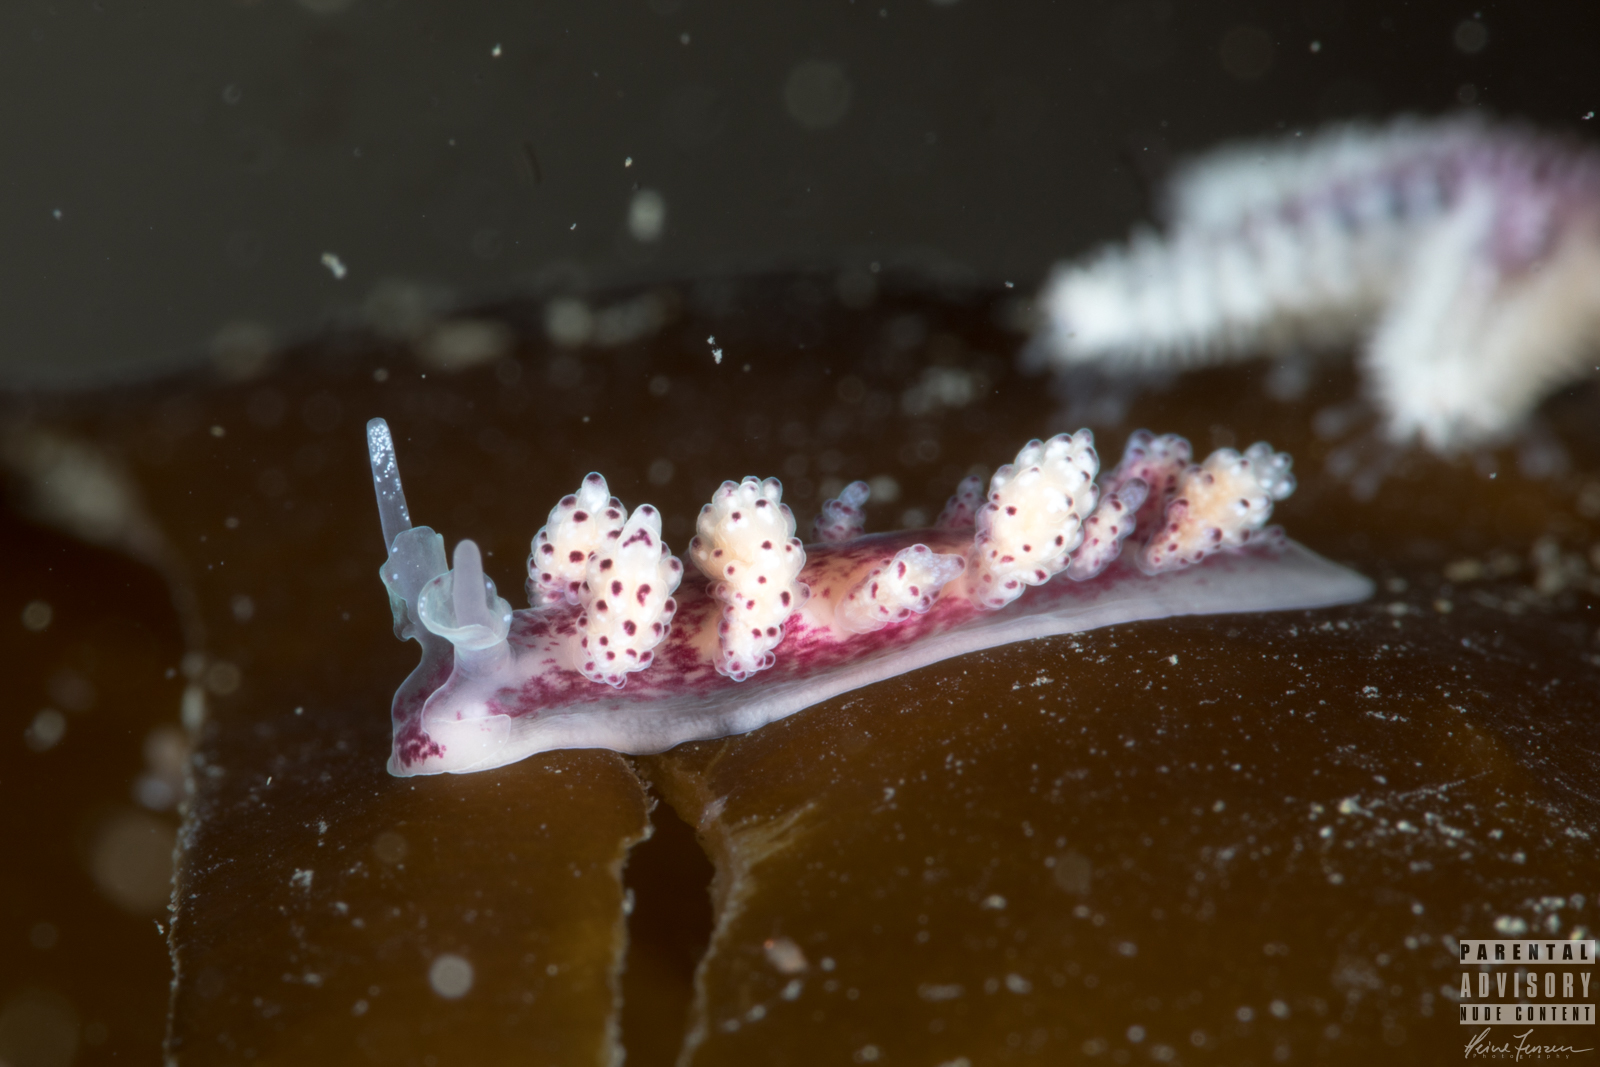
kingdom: Animalia
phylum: Mollusca
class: Gastropoda
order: Nudibranchia
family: Dotidae
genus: Doto
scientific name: Doto coronata
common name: Coronate doto
